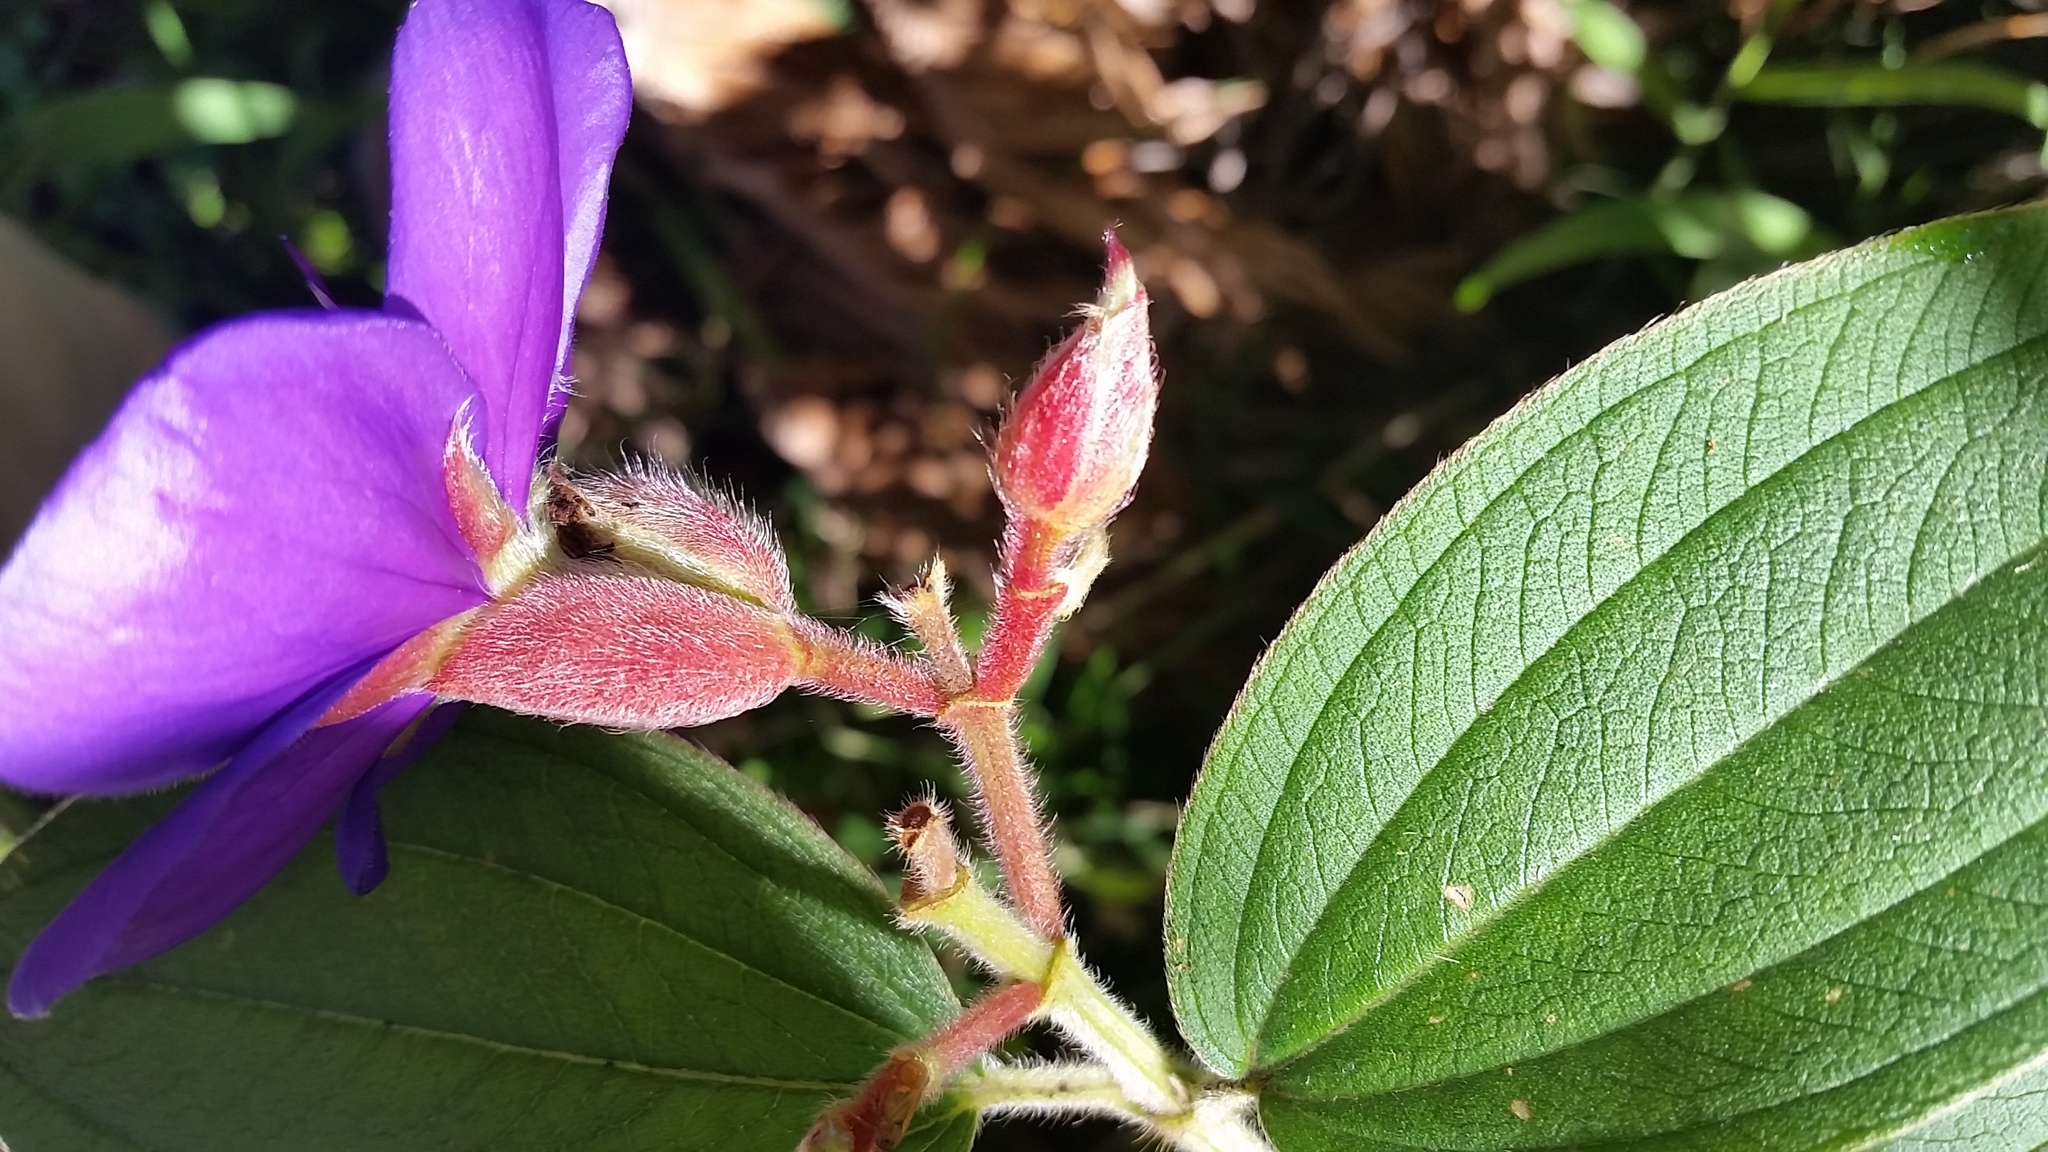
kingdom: Plantae
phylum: Tracheophyta
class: Magnoliopsida
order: Myrtales
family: Melastomataceae
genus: Pleroma
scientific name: Pleroma urvilleanum
